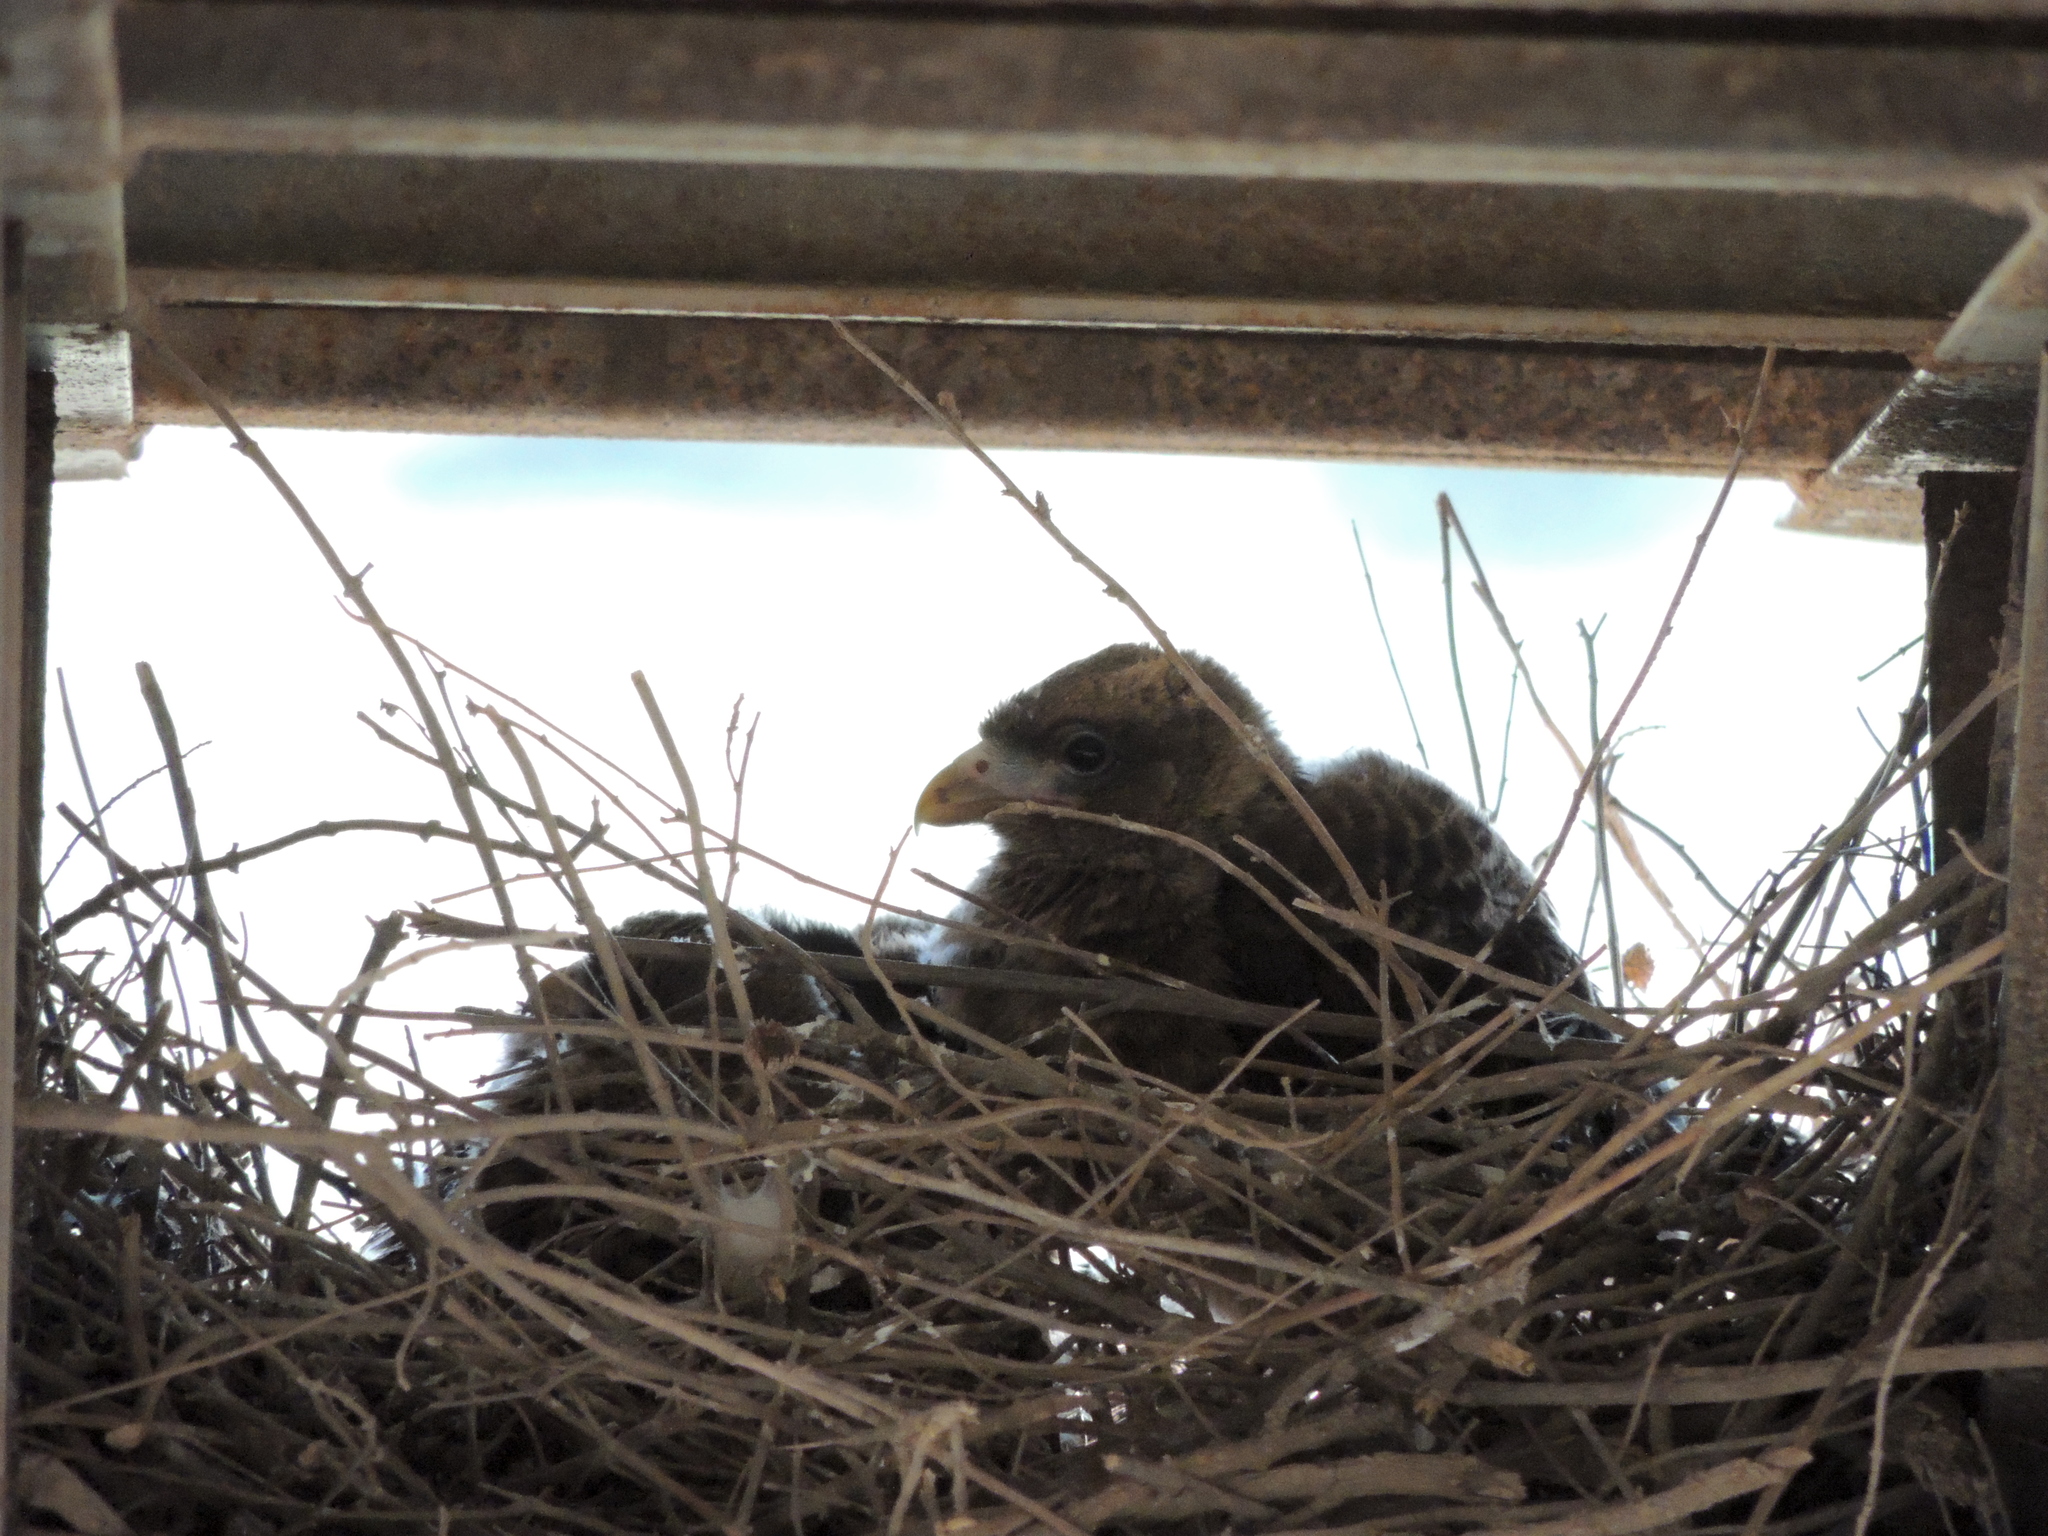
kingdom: Animalia
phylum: Chordata
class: Aves
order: Falconiformes
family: Falconidae
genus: Daptrius
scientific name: Daptrius
